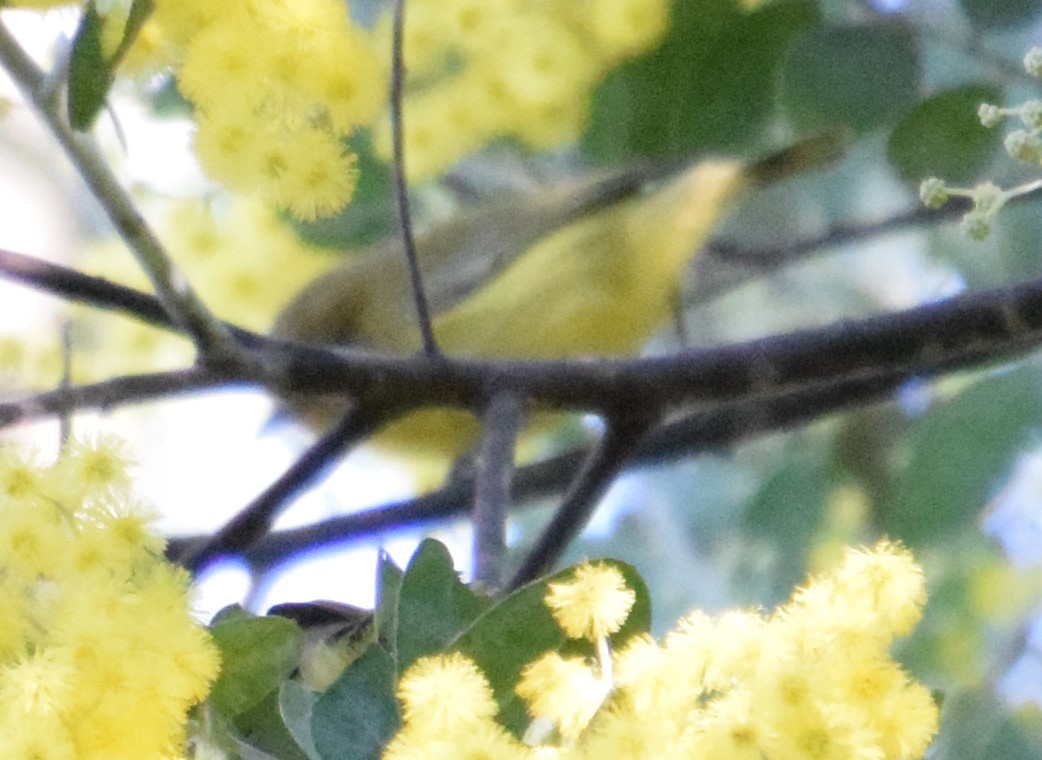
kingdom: Animalia
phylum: Chordata
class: Aves
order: Passeriformes
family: Acanthizidae
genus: Acanthiza
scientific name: Acanthiza nana
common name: Yellow thornbill
